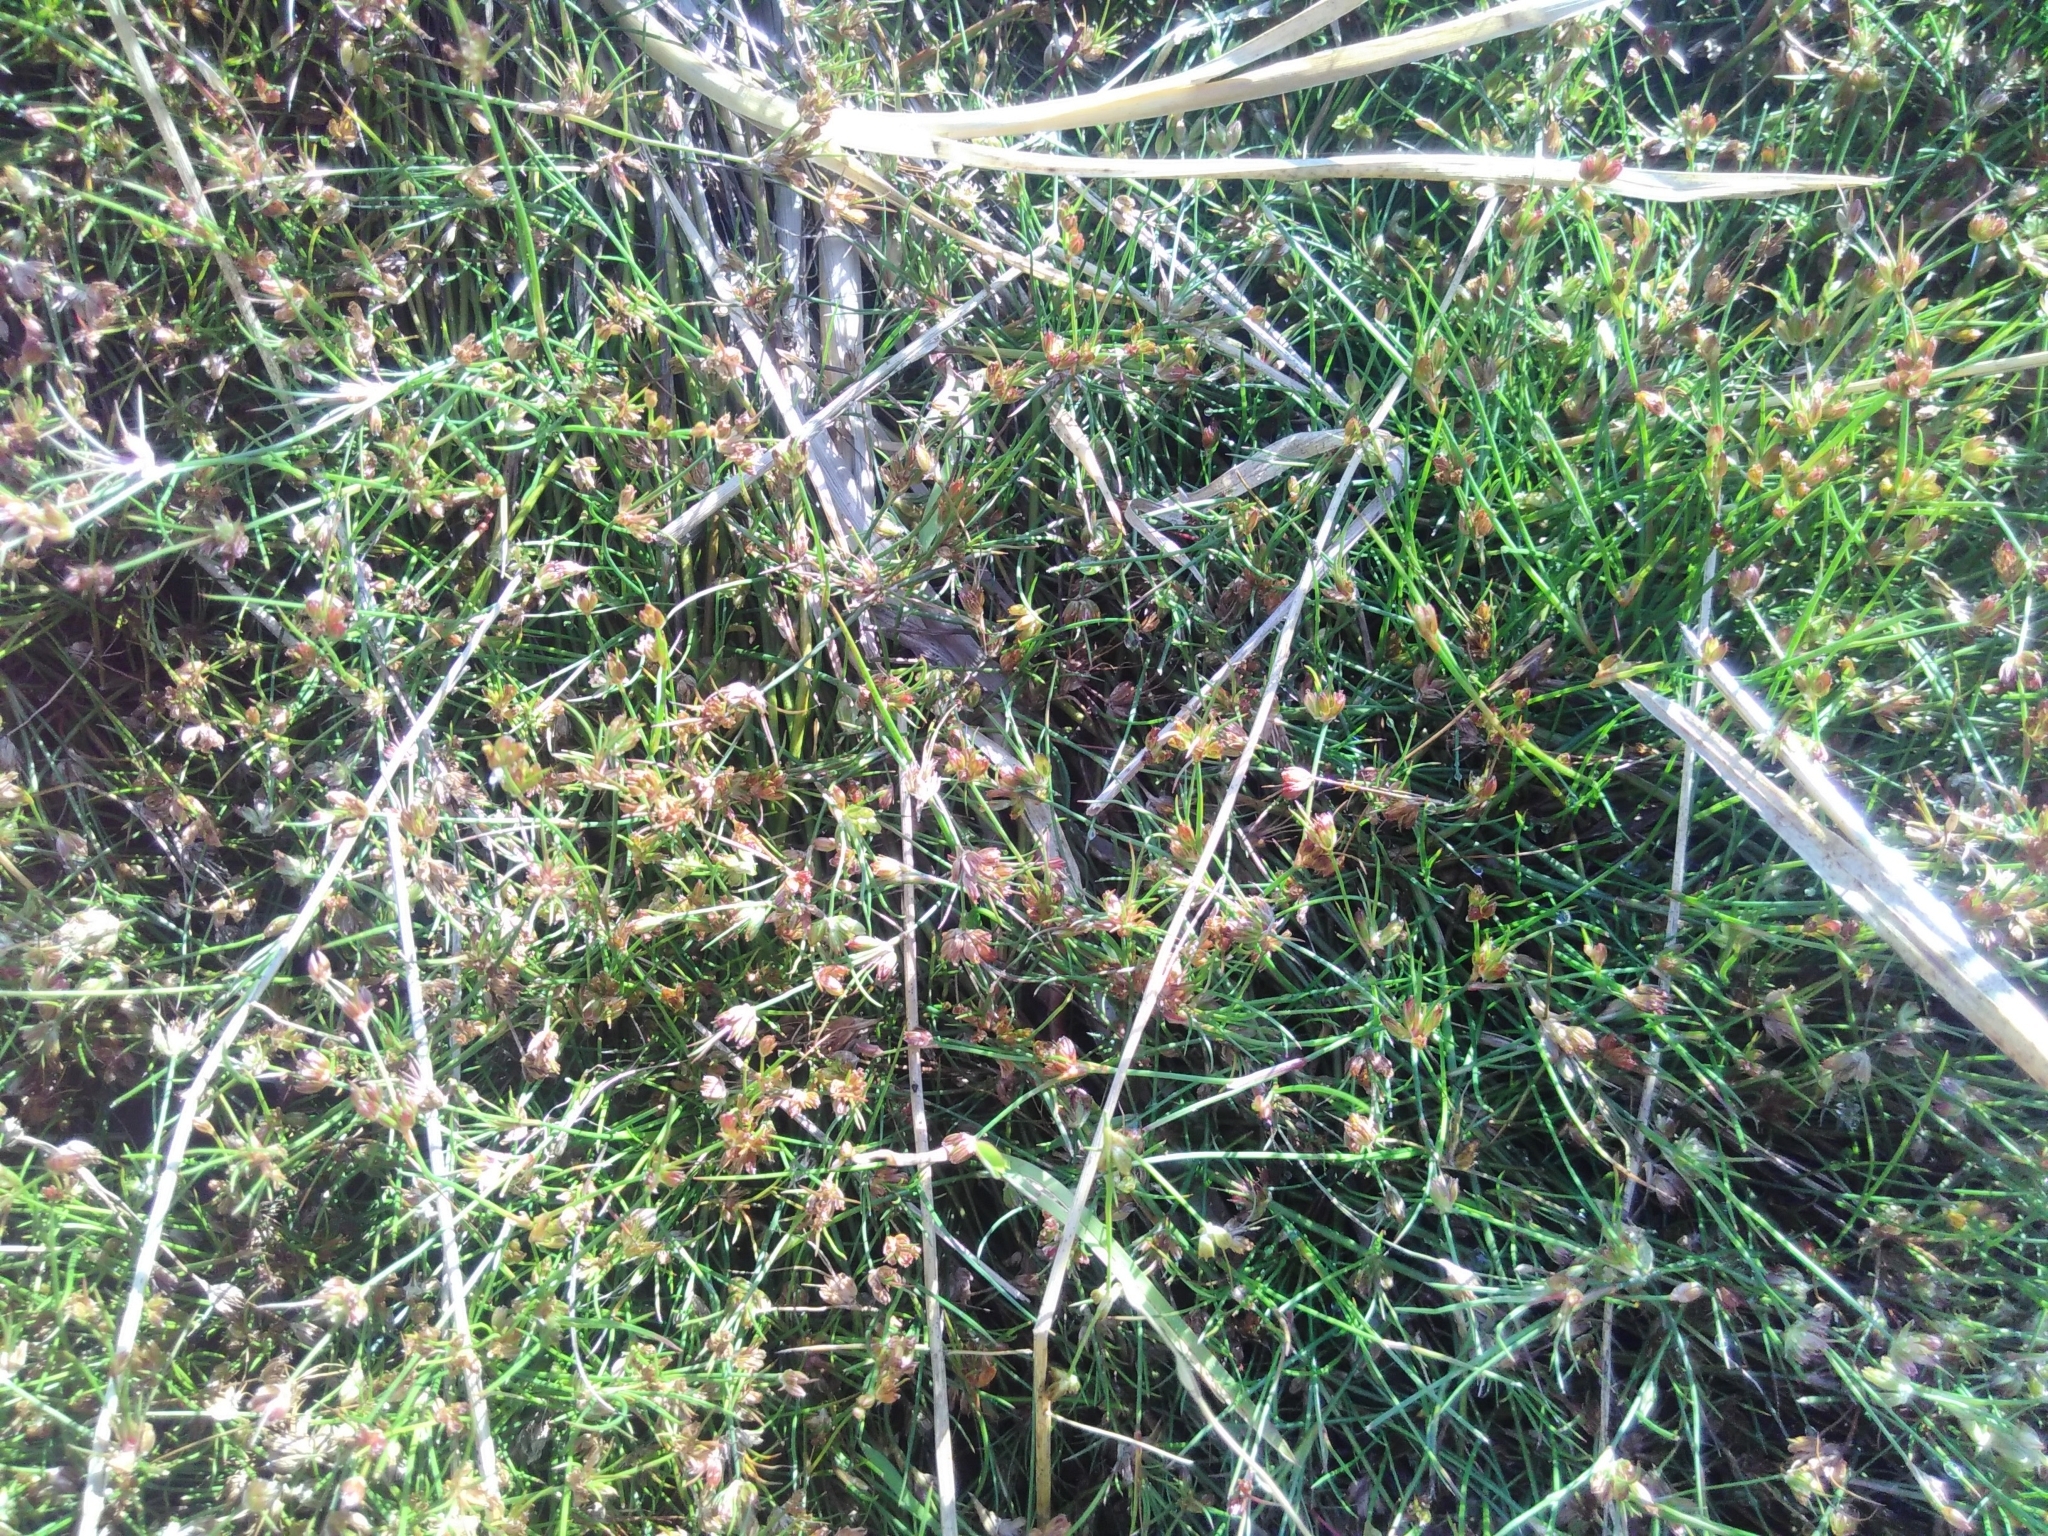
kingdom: Plantae
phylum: Tracheophyta
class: Liliopsida
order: Poales
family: Juncaceae
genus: Juncus
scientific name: Juncus bulbosus
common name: Bulbous rush
